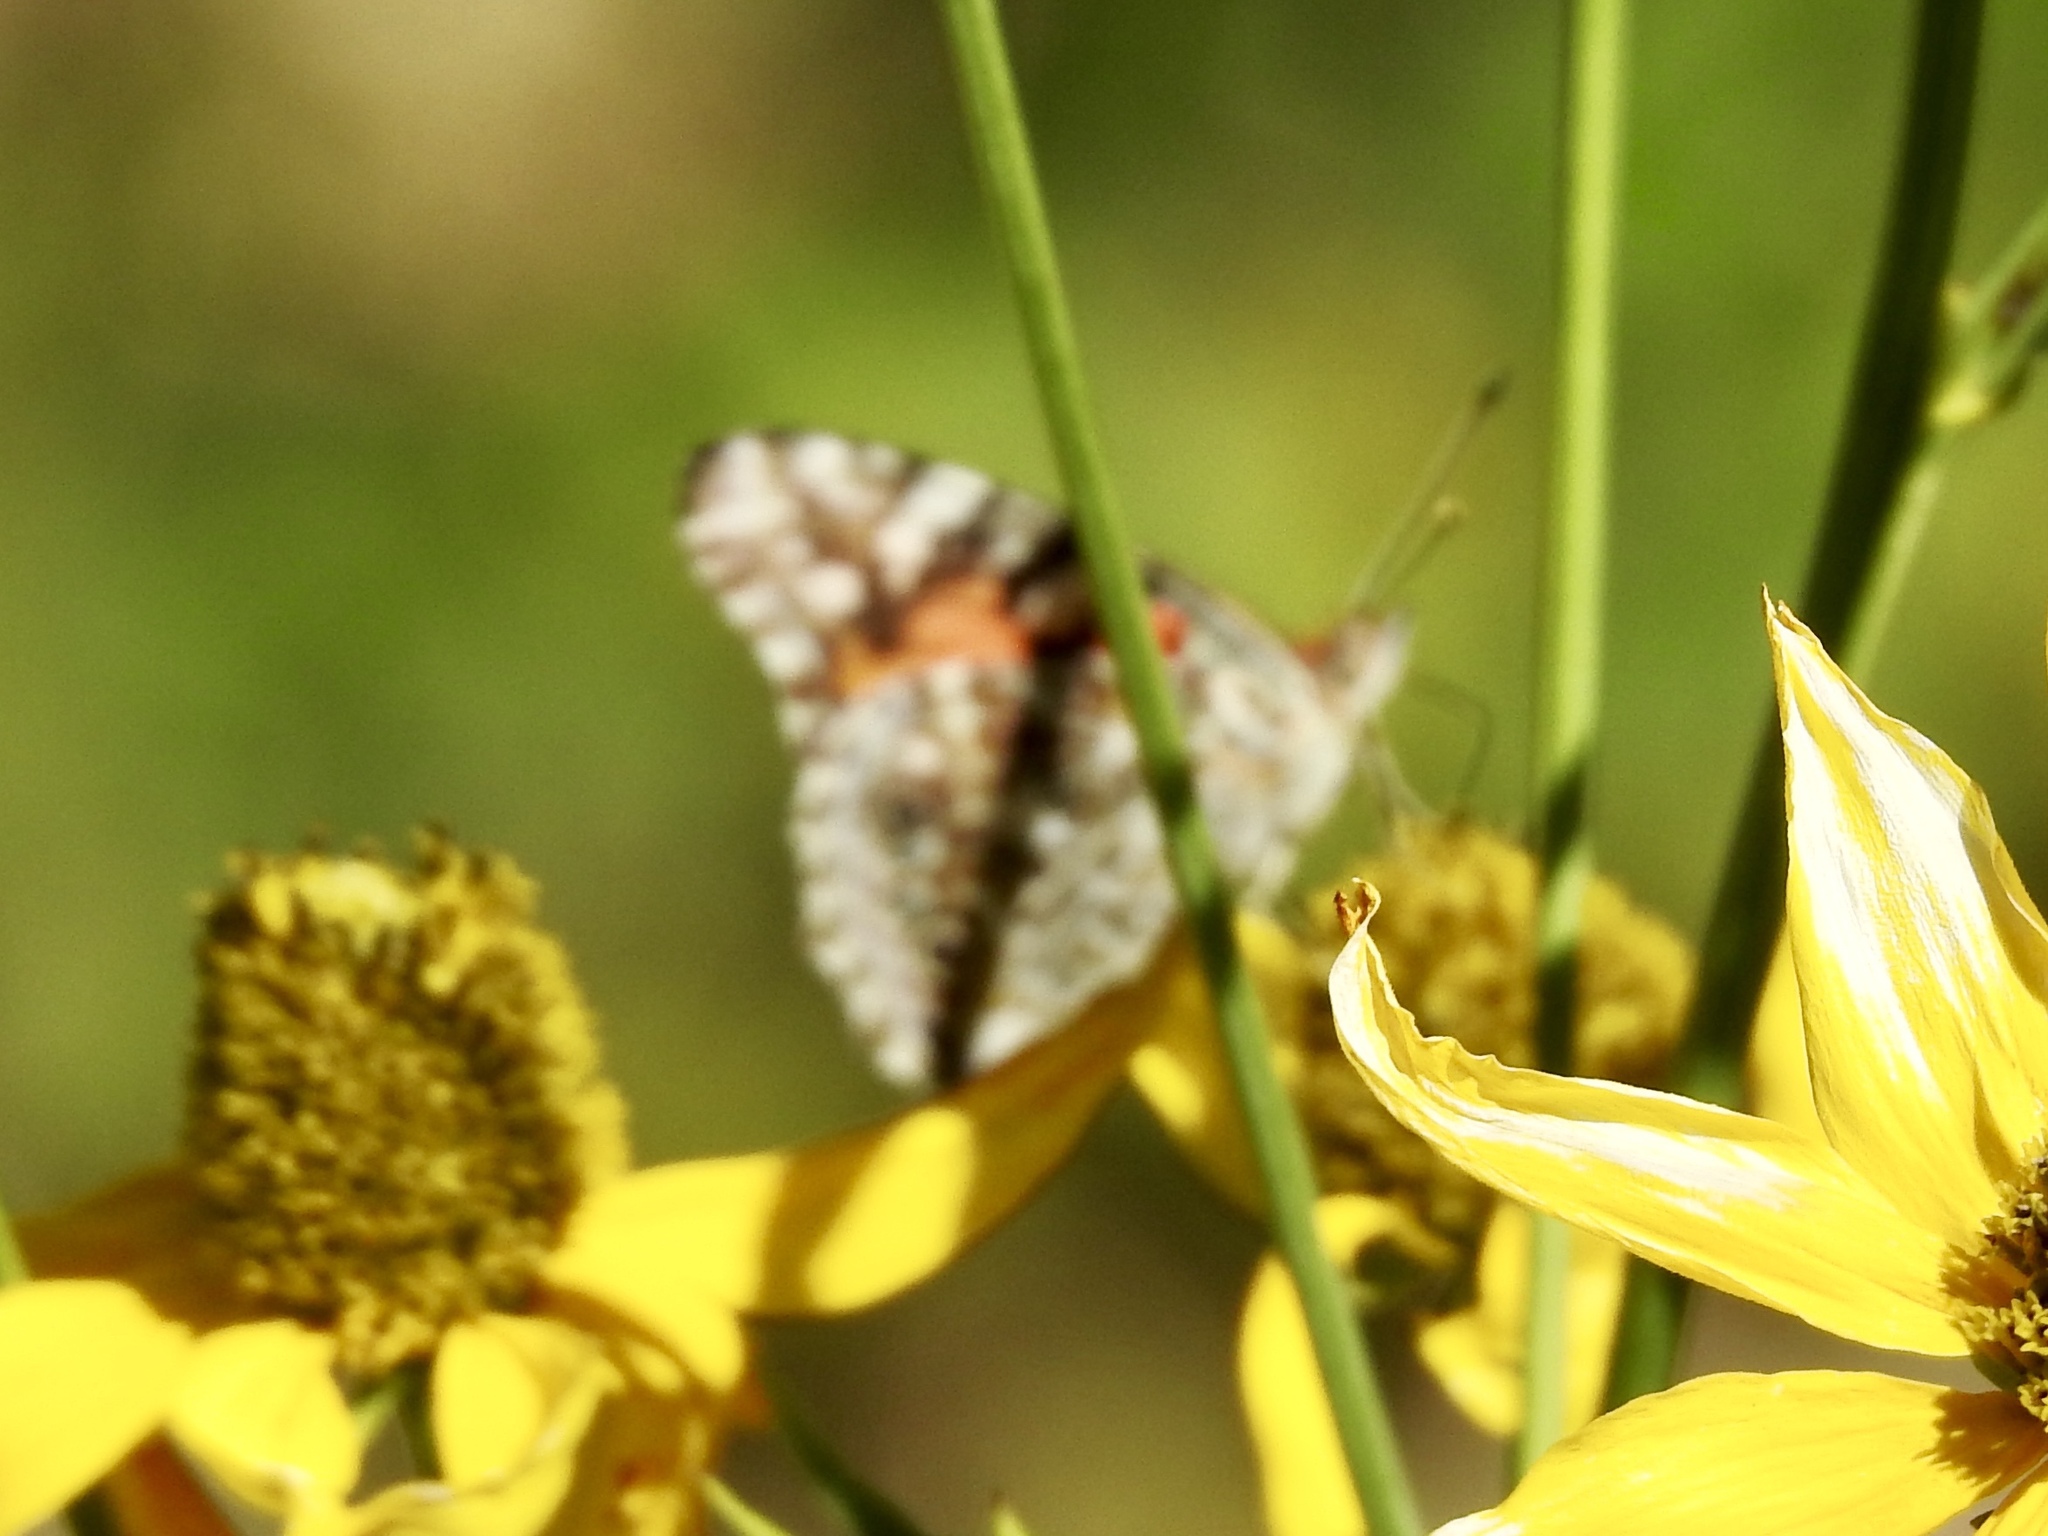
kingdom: Animalia
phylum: Arthropoda
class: Insecta
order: Lepidoptera
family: Nymphalidae
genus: Vanessa
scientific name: Vanessa cardui
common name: Painted lady
